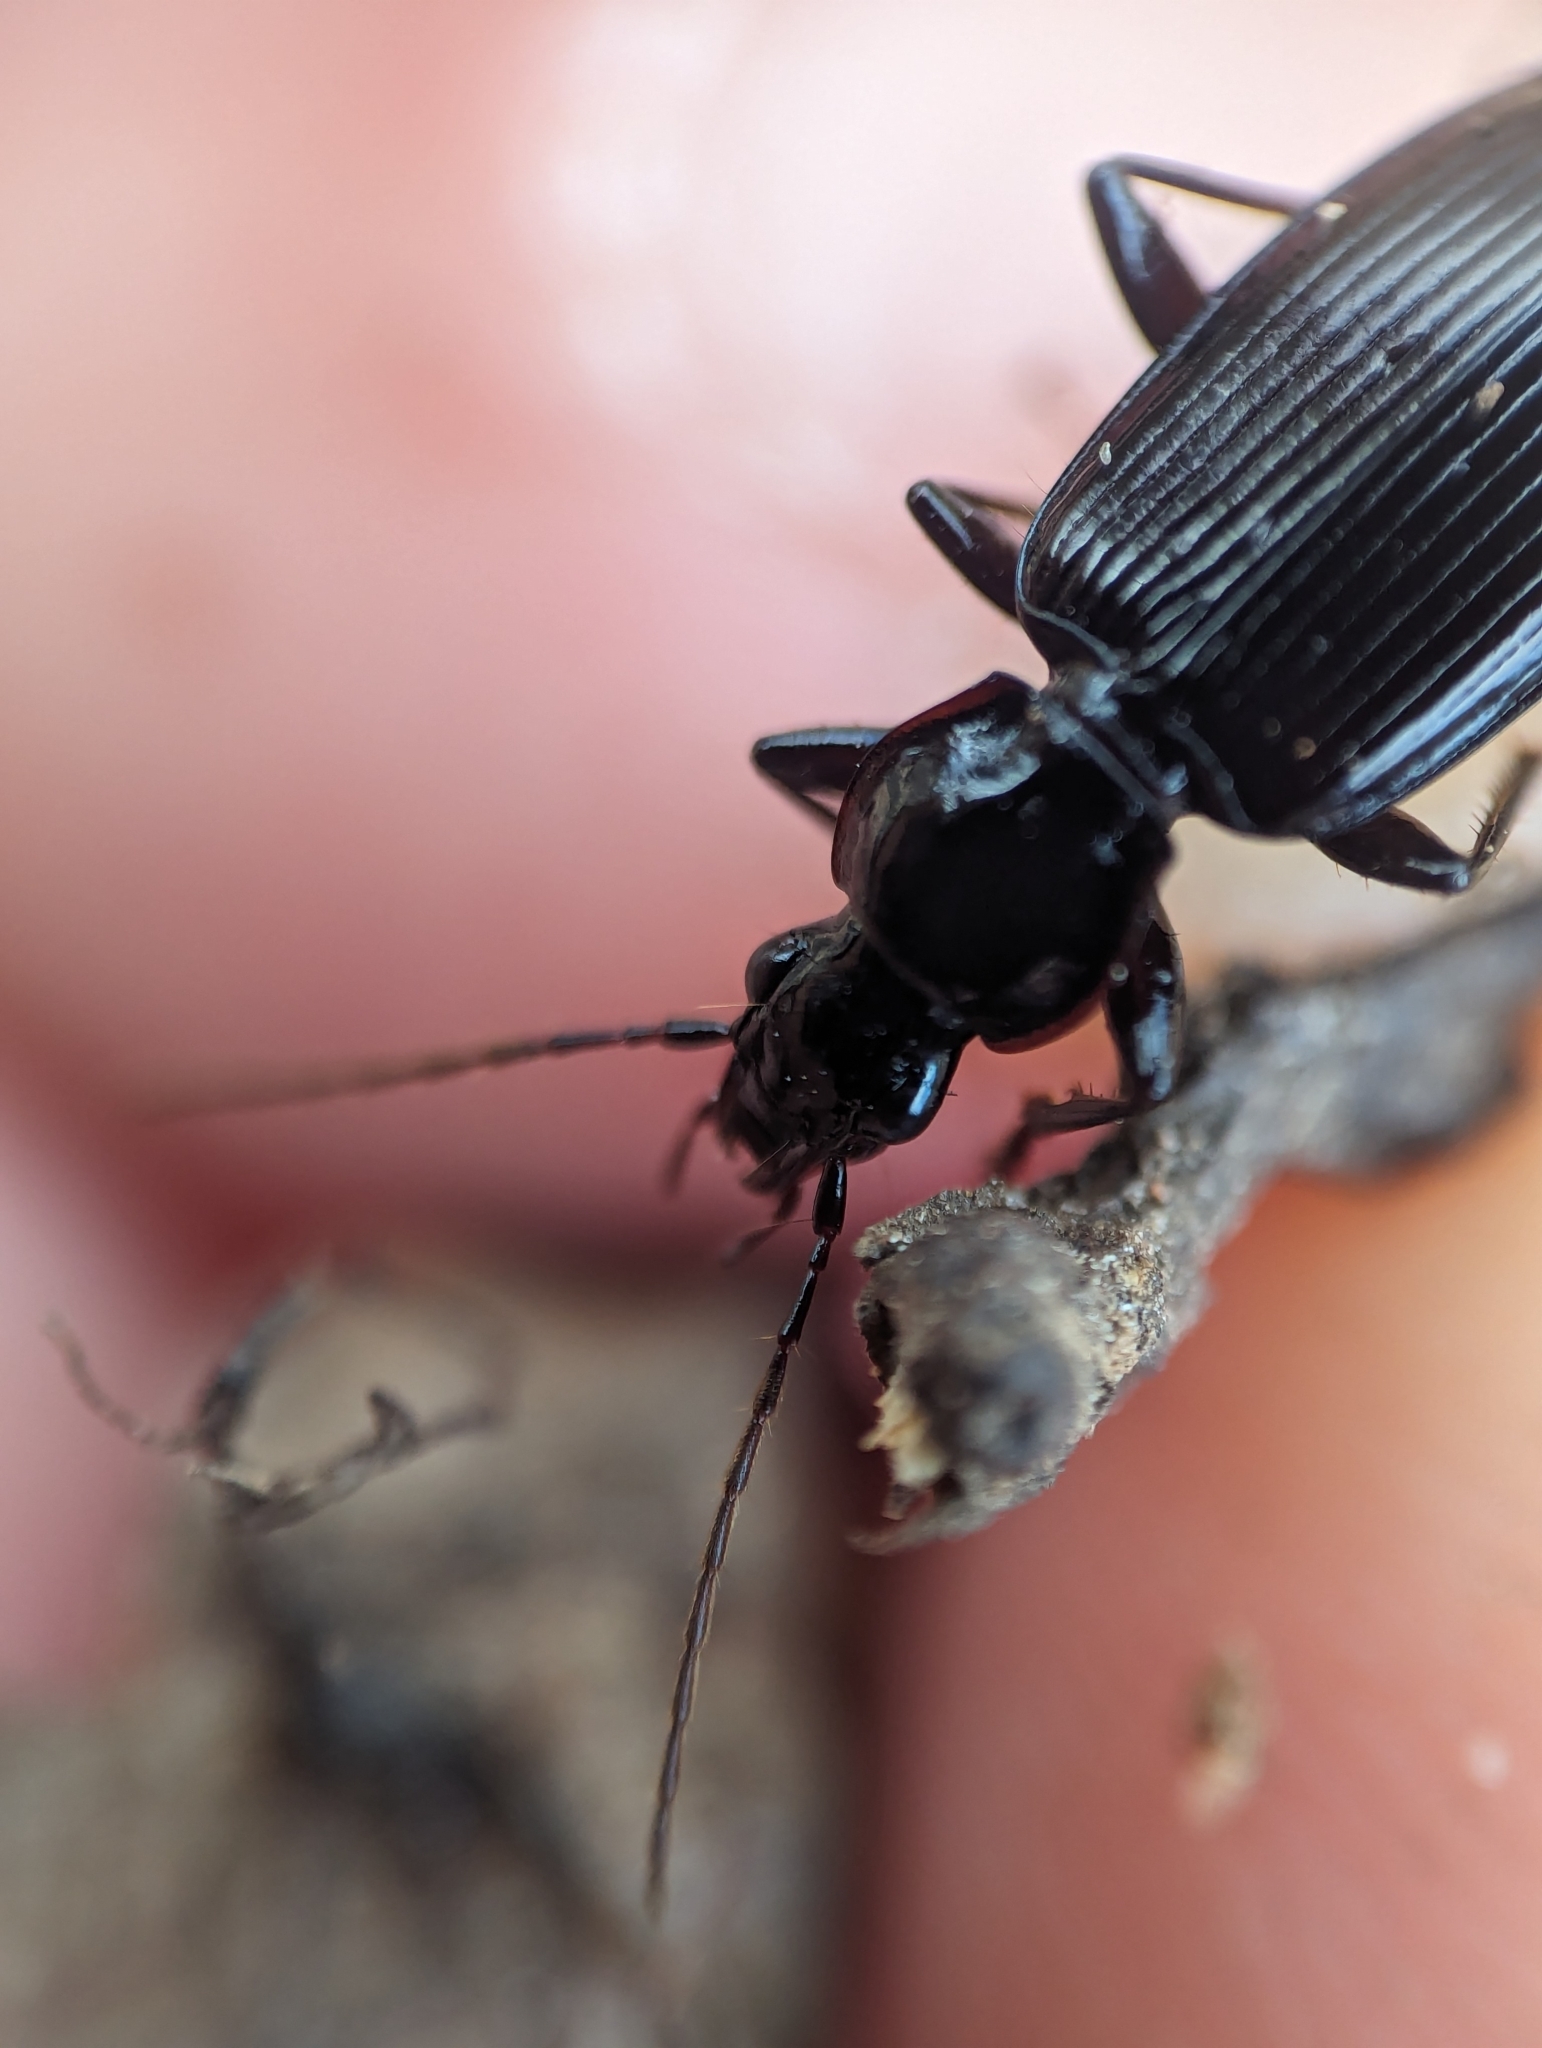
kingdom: Animalia
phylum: Arthropoda
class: Insecta
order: Coleoptera
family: Carabidae
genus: Platynus
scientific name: Platynus decentis
